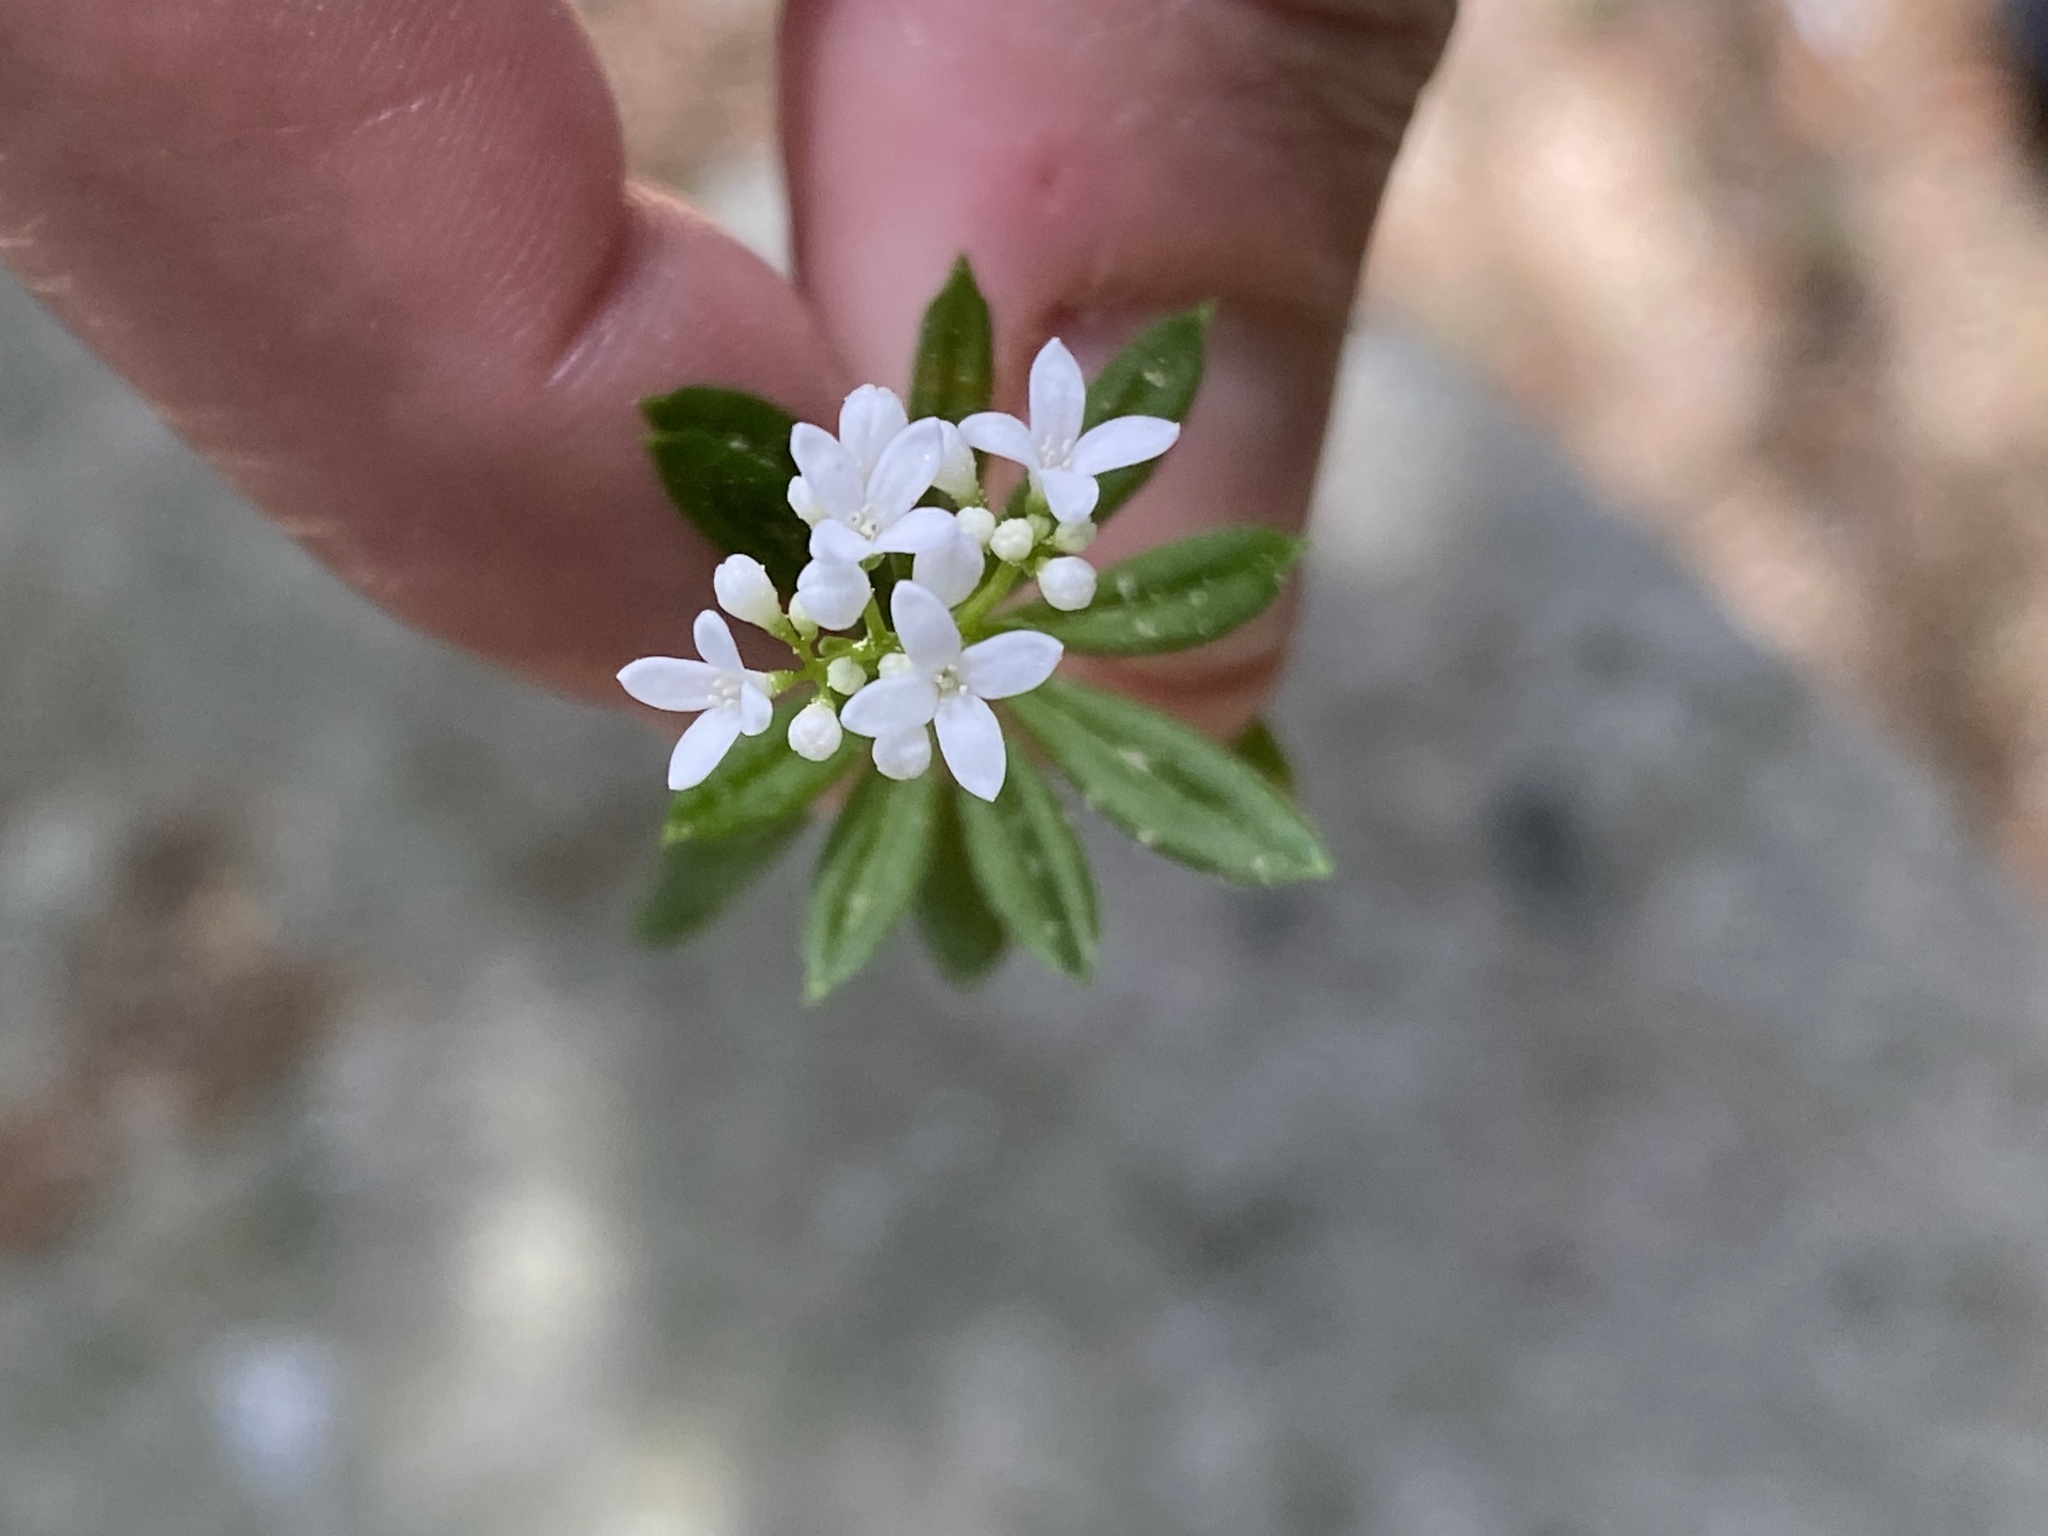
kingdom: Plantae
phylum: Tracheophyta
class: Magnoliopsida
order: Gentianales
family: Rubiaceae
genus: Galium
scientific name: Galium odoratum
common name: Sweet woodruff
